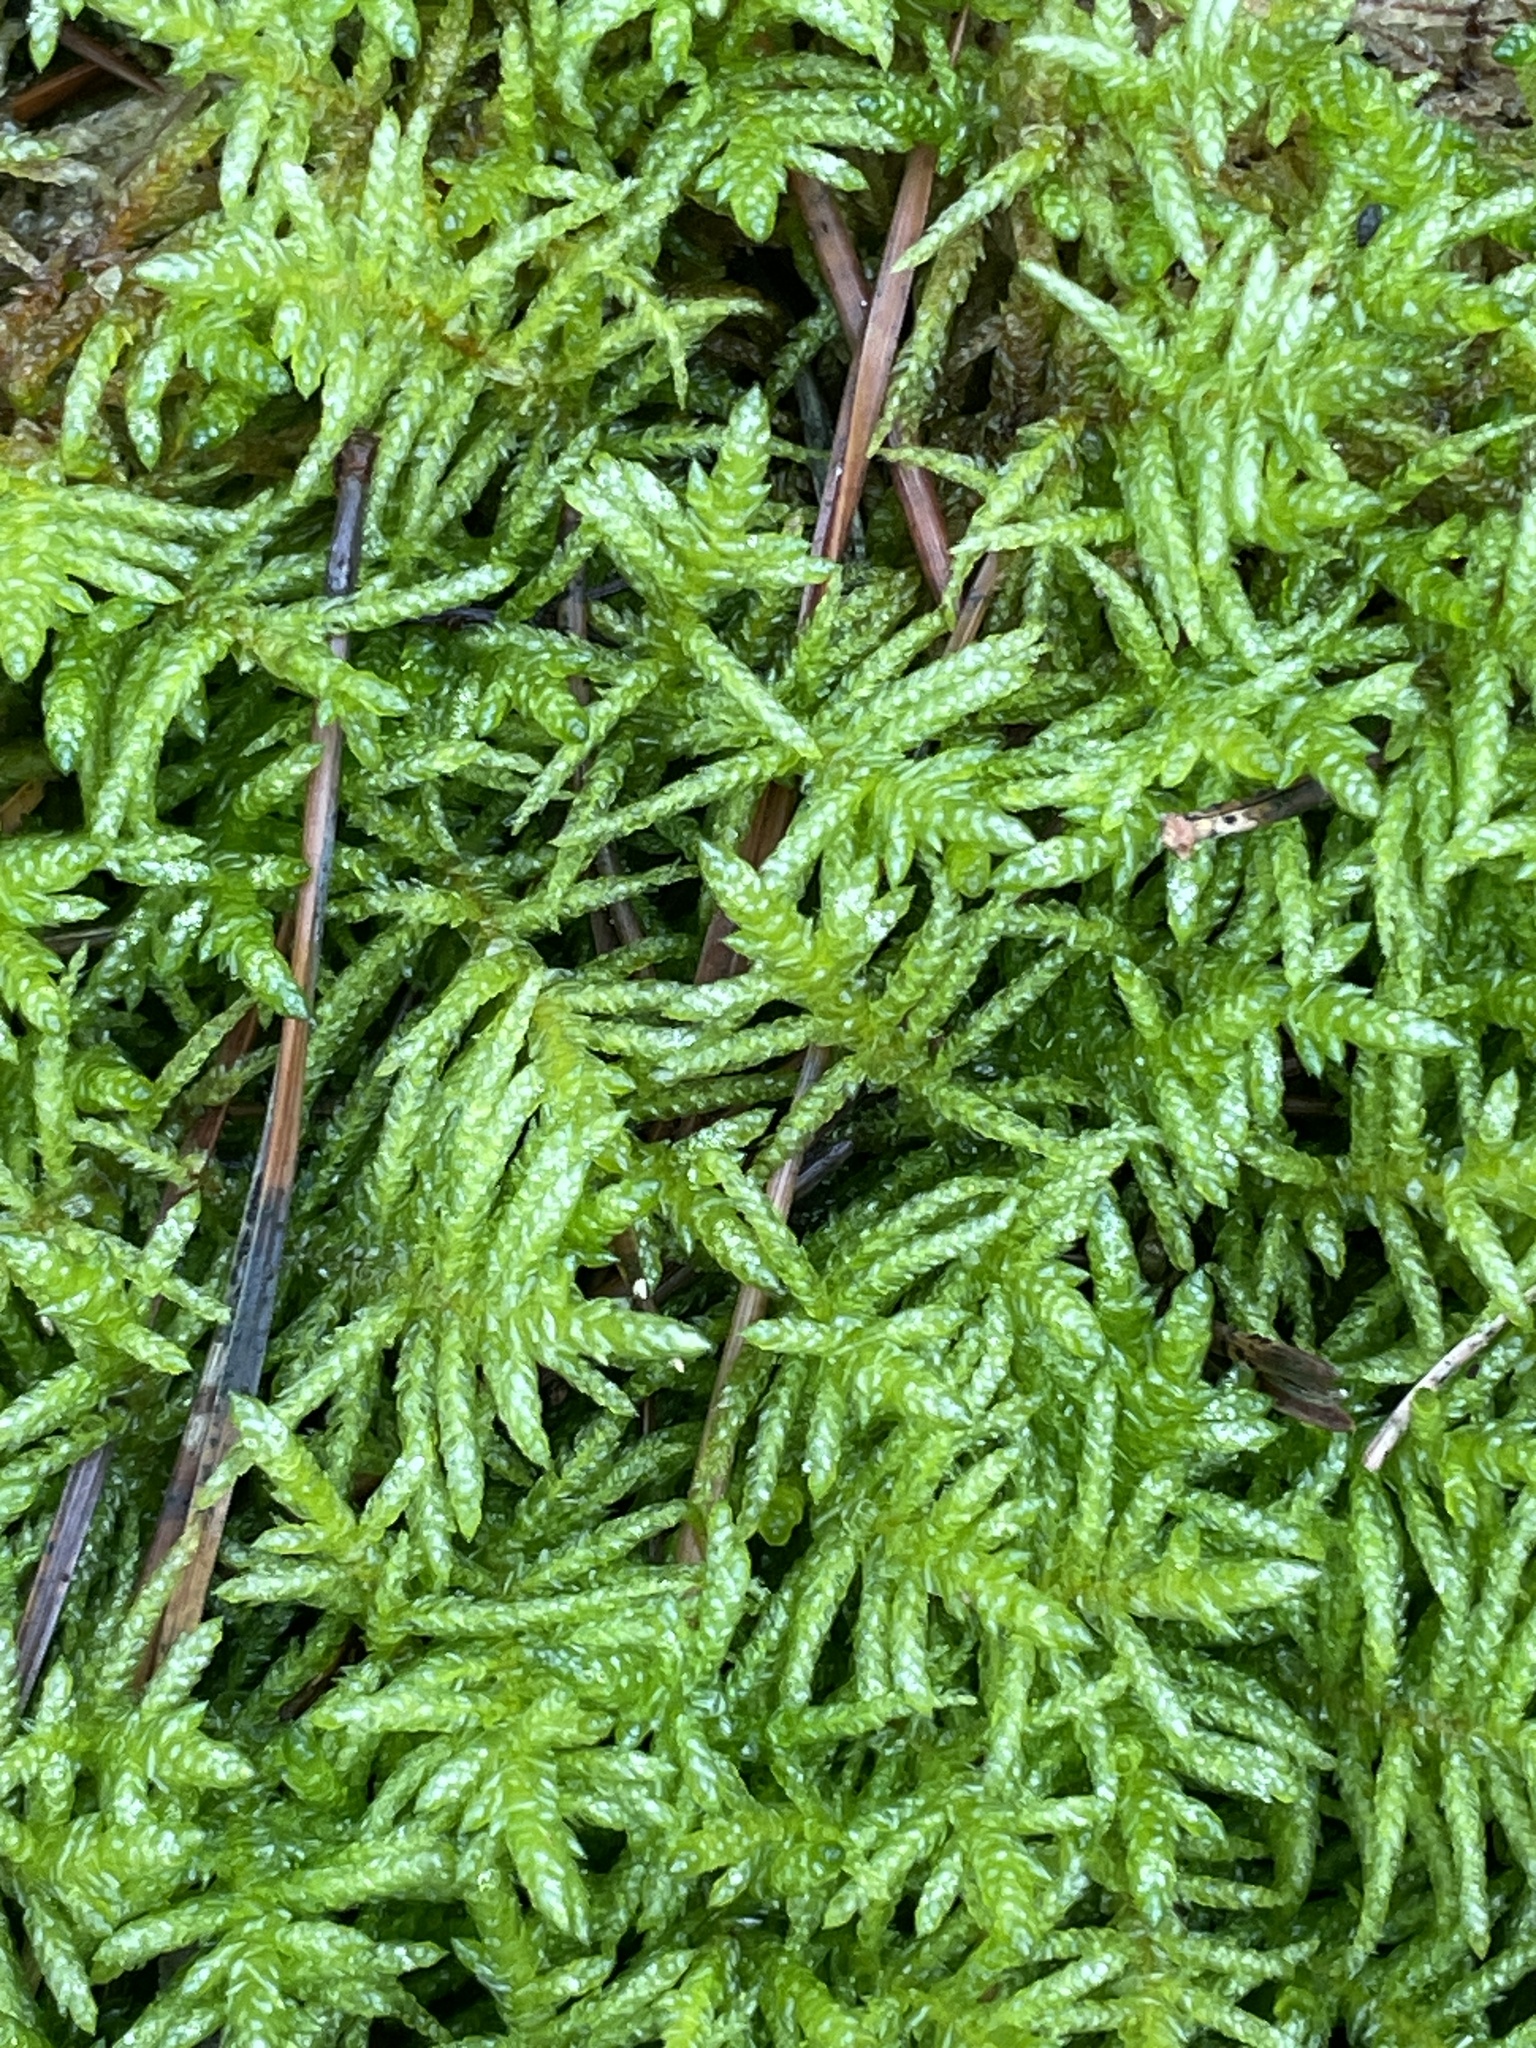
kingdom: Plantae
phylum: Bryophyta
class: Bryopsida
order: Hypnales
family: Brachytheciaceae
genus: Pseudoscleropodium
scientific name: Pseudoscleropodium purum
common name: Neat feather-moss
